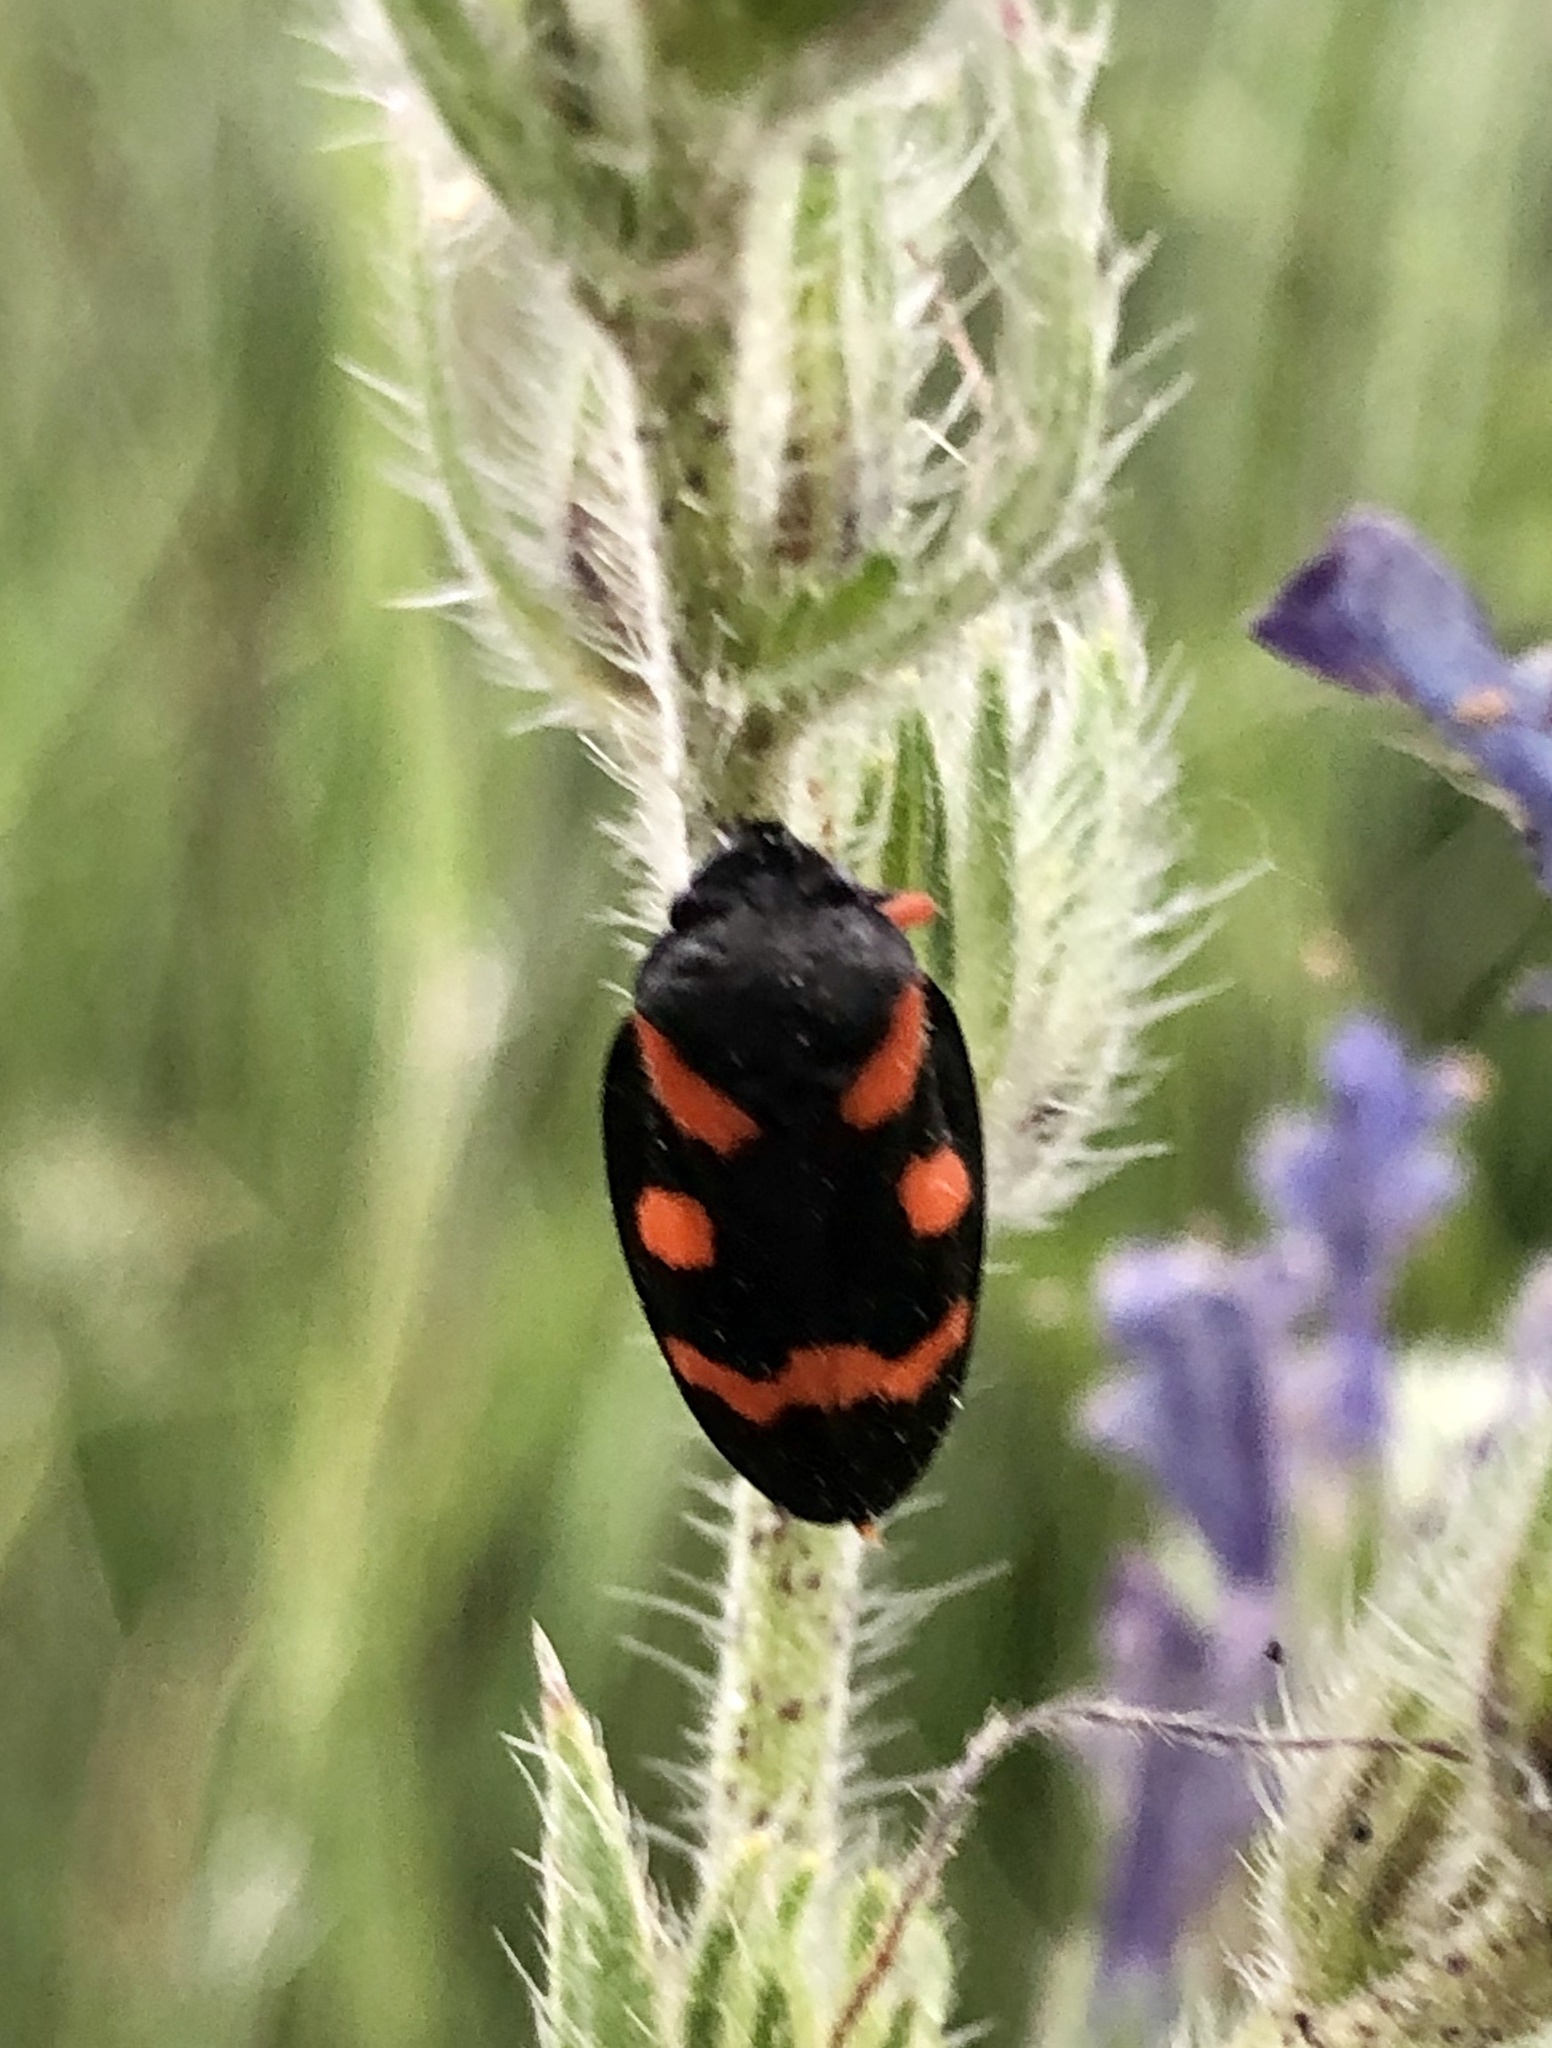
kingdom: Animalia
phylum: Arthropoda
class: Insecta
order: Hemiptera
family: Cercopidae
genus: Cercopis
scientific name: Cercopis intermedia
